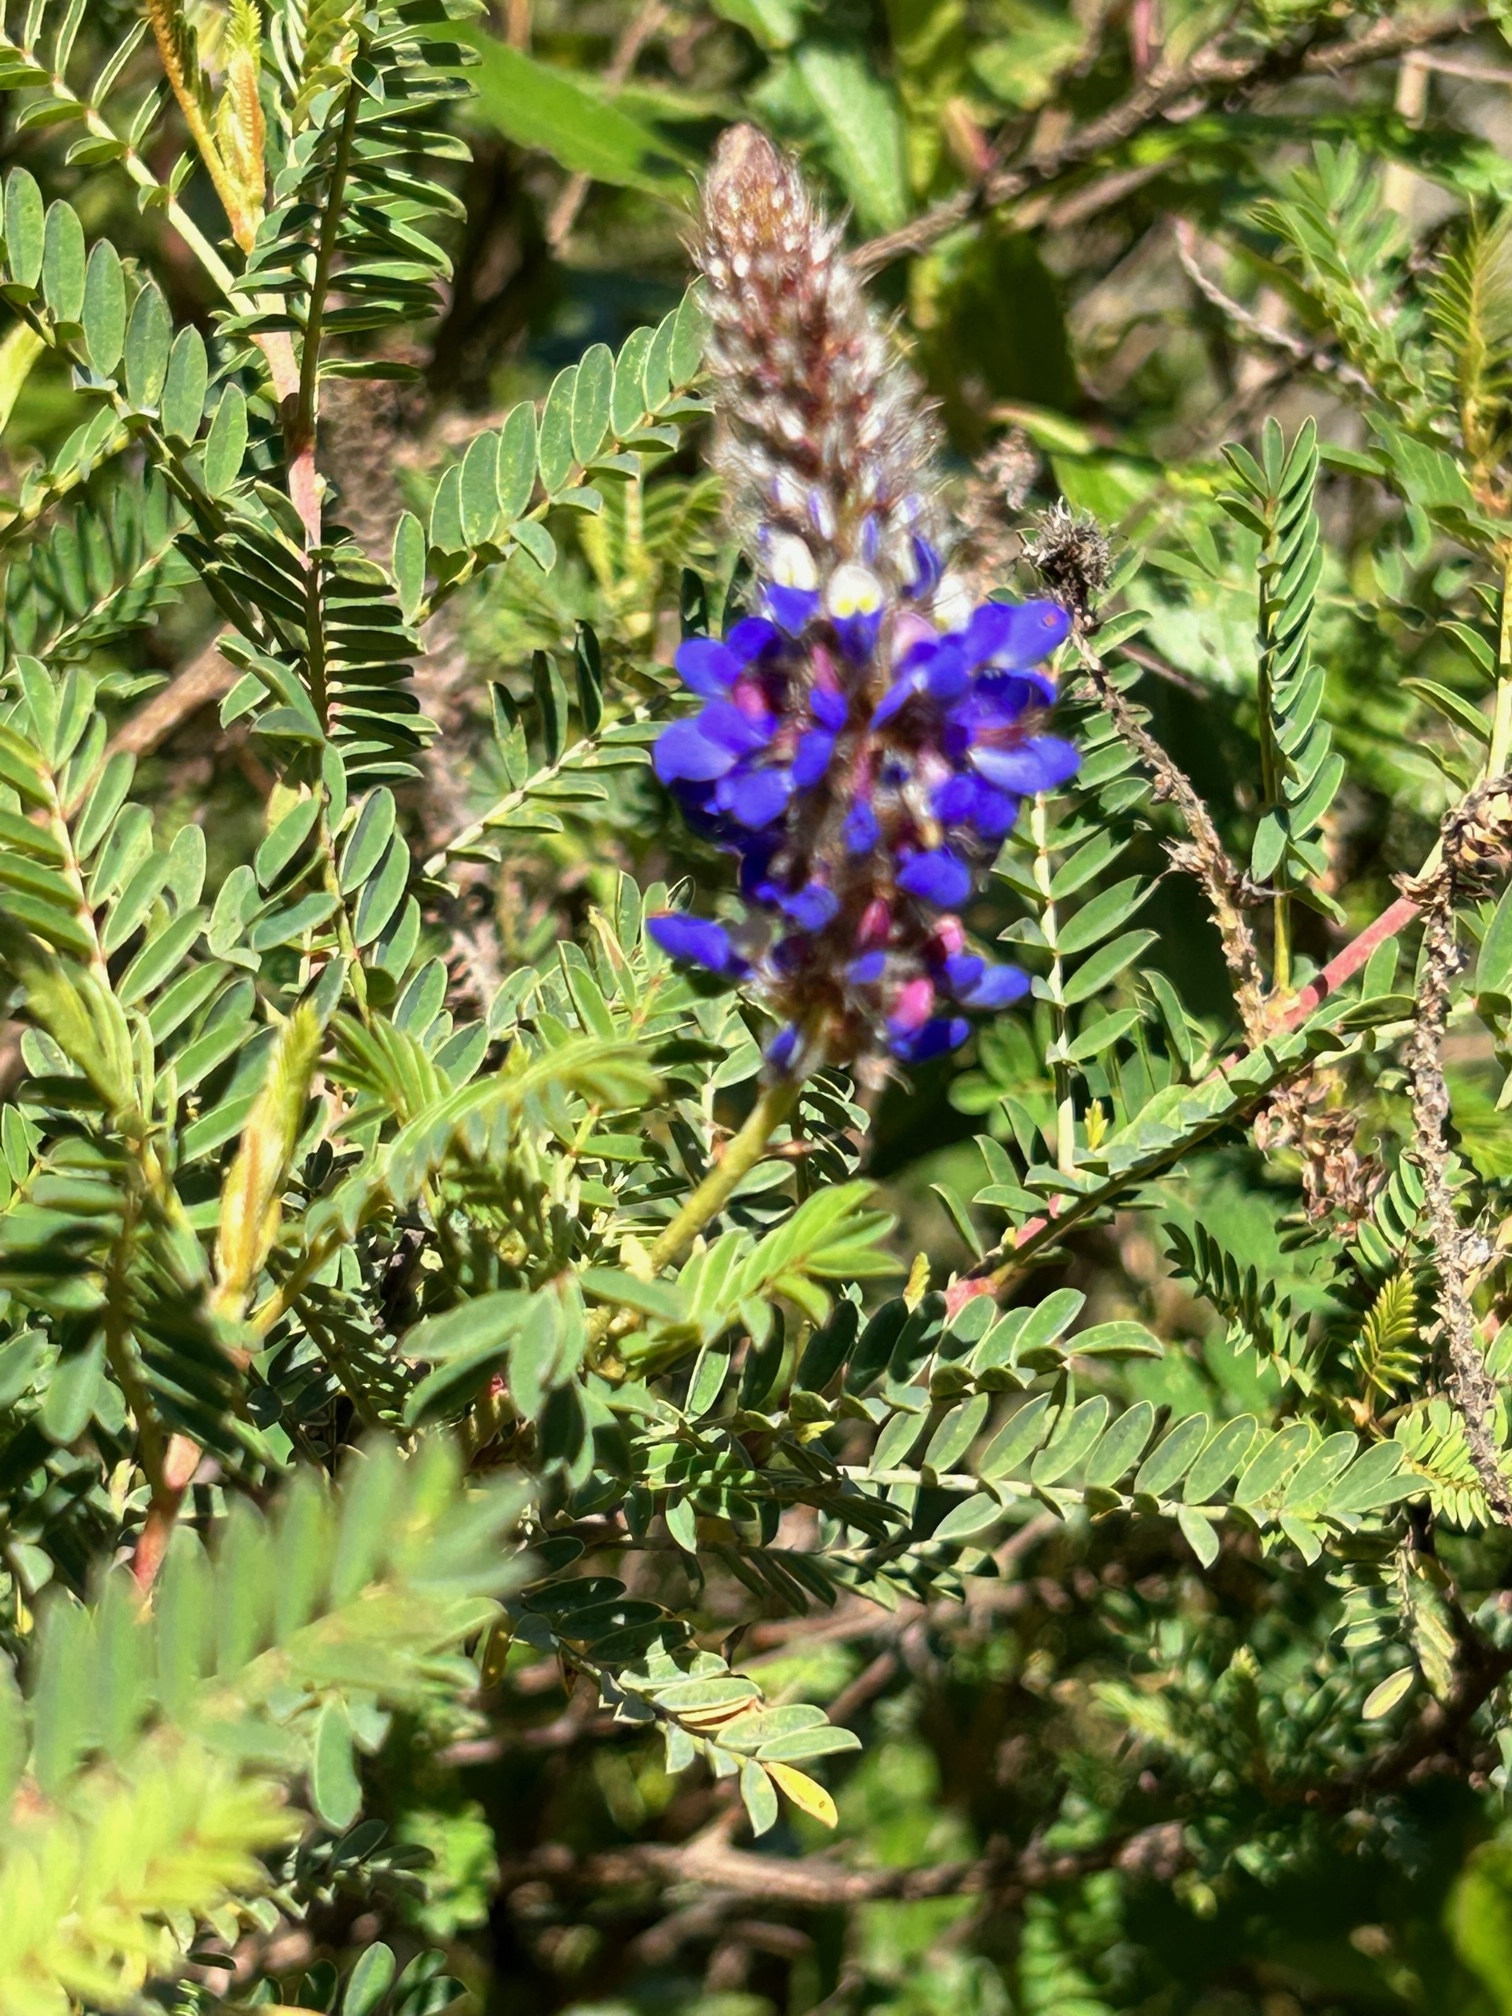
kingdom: Plantae
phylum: Tracheophyta
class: Magnoliopsida
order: Fabales
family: Fabaceae
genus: Dalea
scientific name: Dalea coerulea
